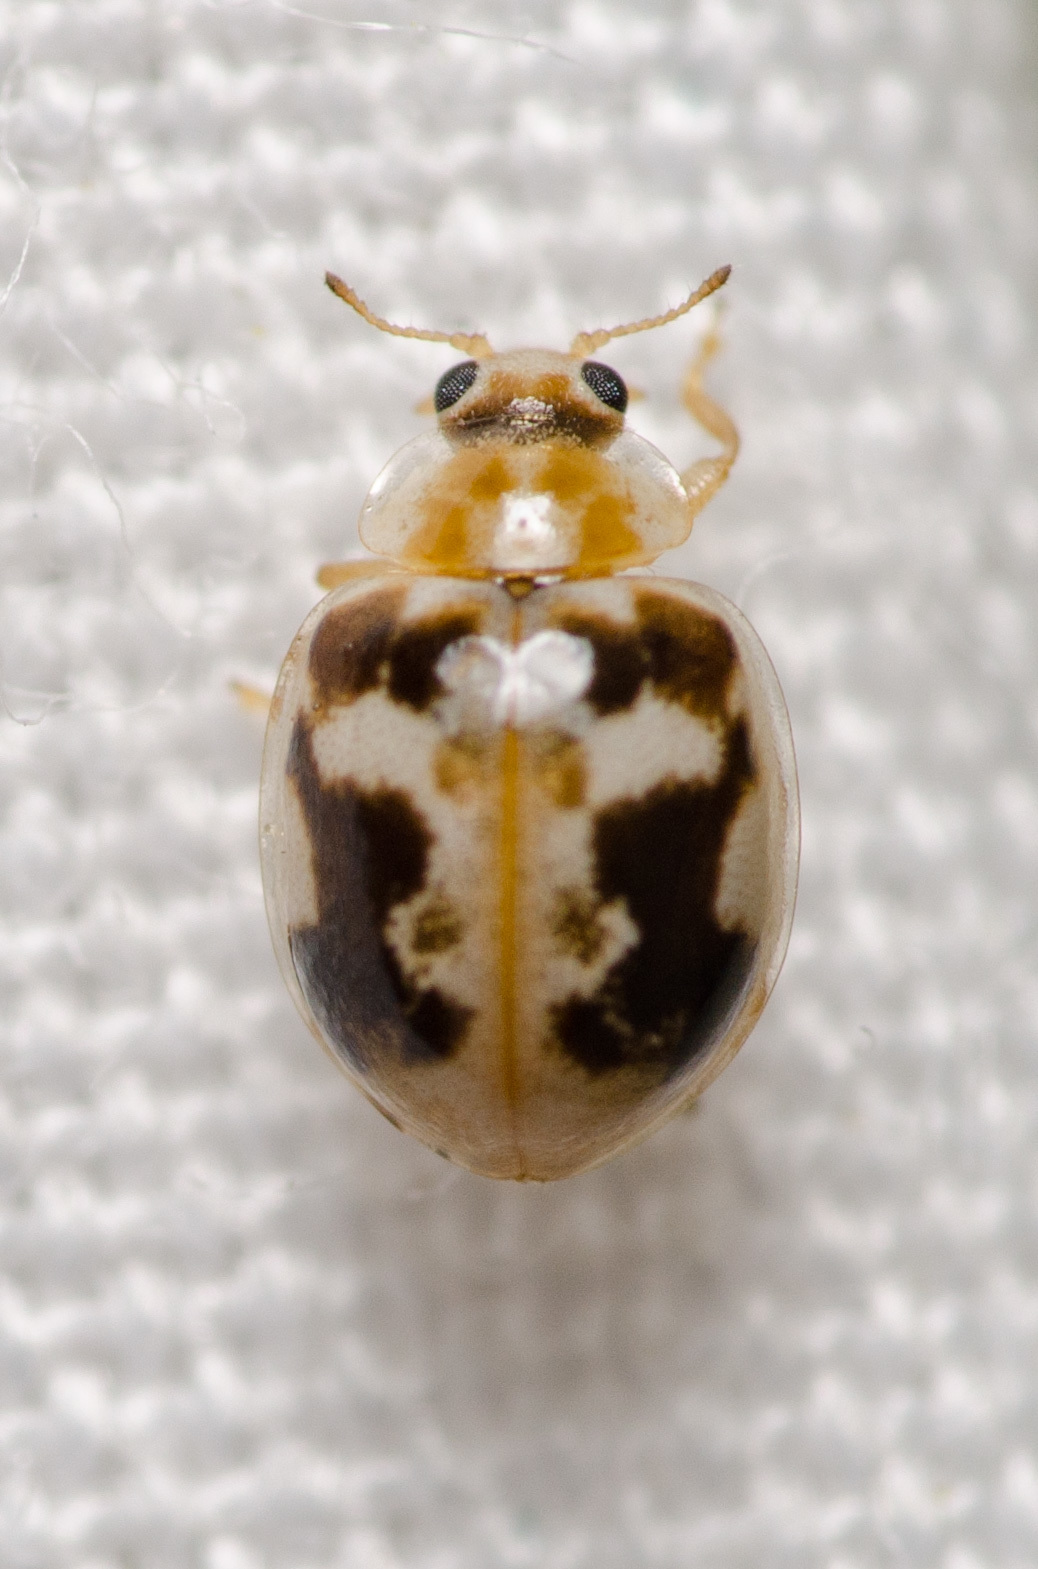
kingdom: Animalia
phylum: Arthropoda
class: Insecta
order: Coleoptera
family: Coccinellidae
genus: Psyllobora
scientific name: Psyllobora renifer
